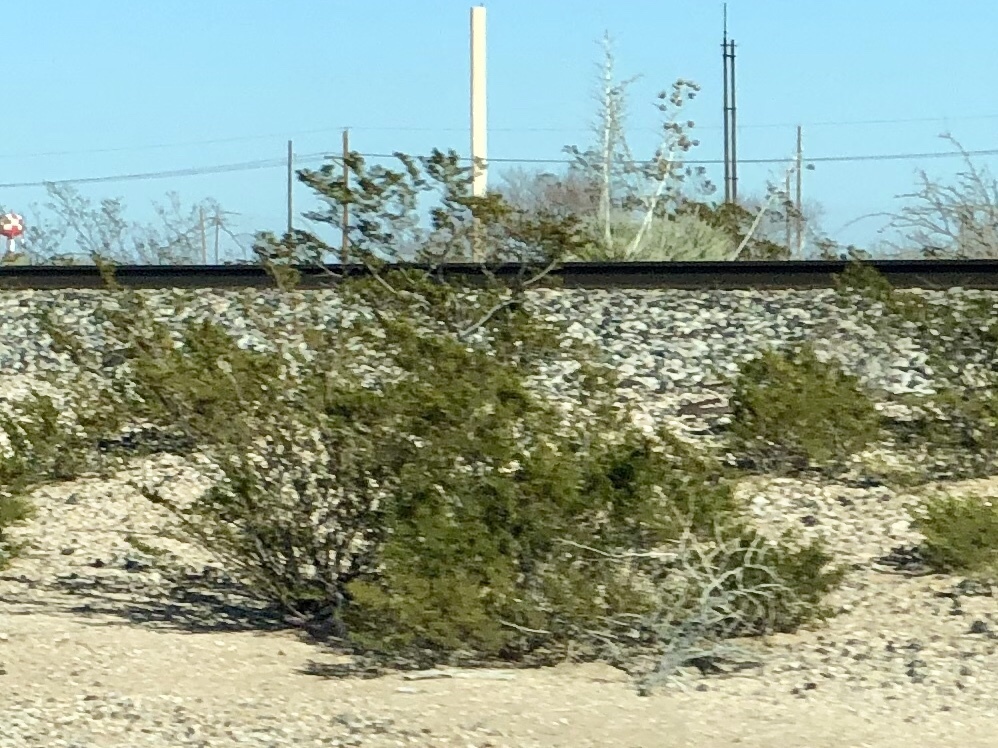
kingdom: Plantae
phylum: Tracheophyta
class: Magnoliopsida
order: Zygophyllales
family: Zygophyllaceae
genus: Larrea
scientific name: Larrea tridentata
